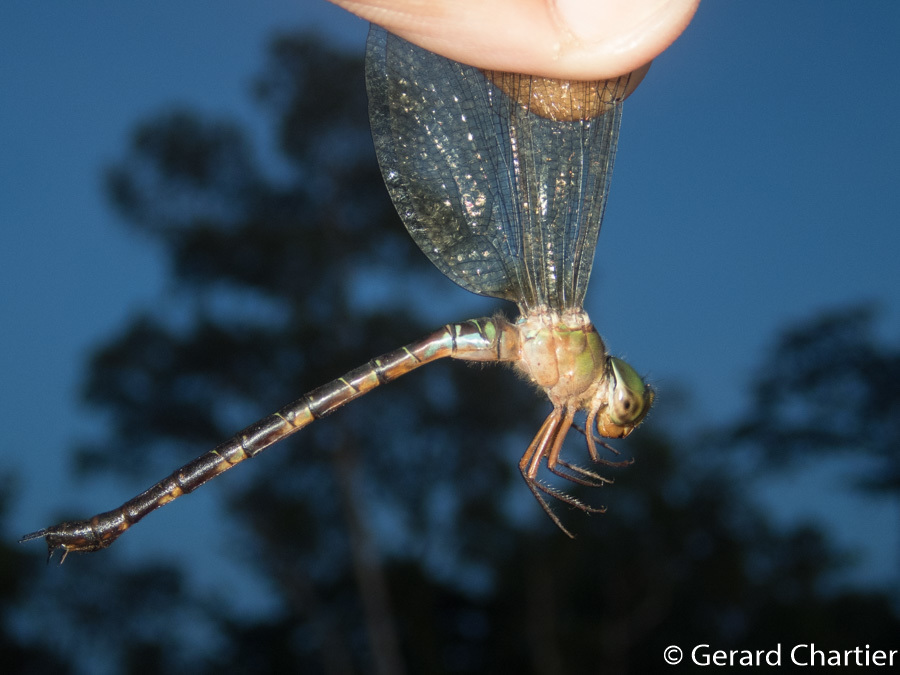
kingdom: Animalia
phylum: Arthropoda
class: Insecta
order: Odonata
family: Aeshnidae
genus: Gynacantha
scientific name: Gynacantha demeter
